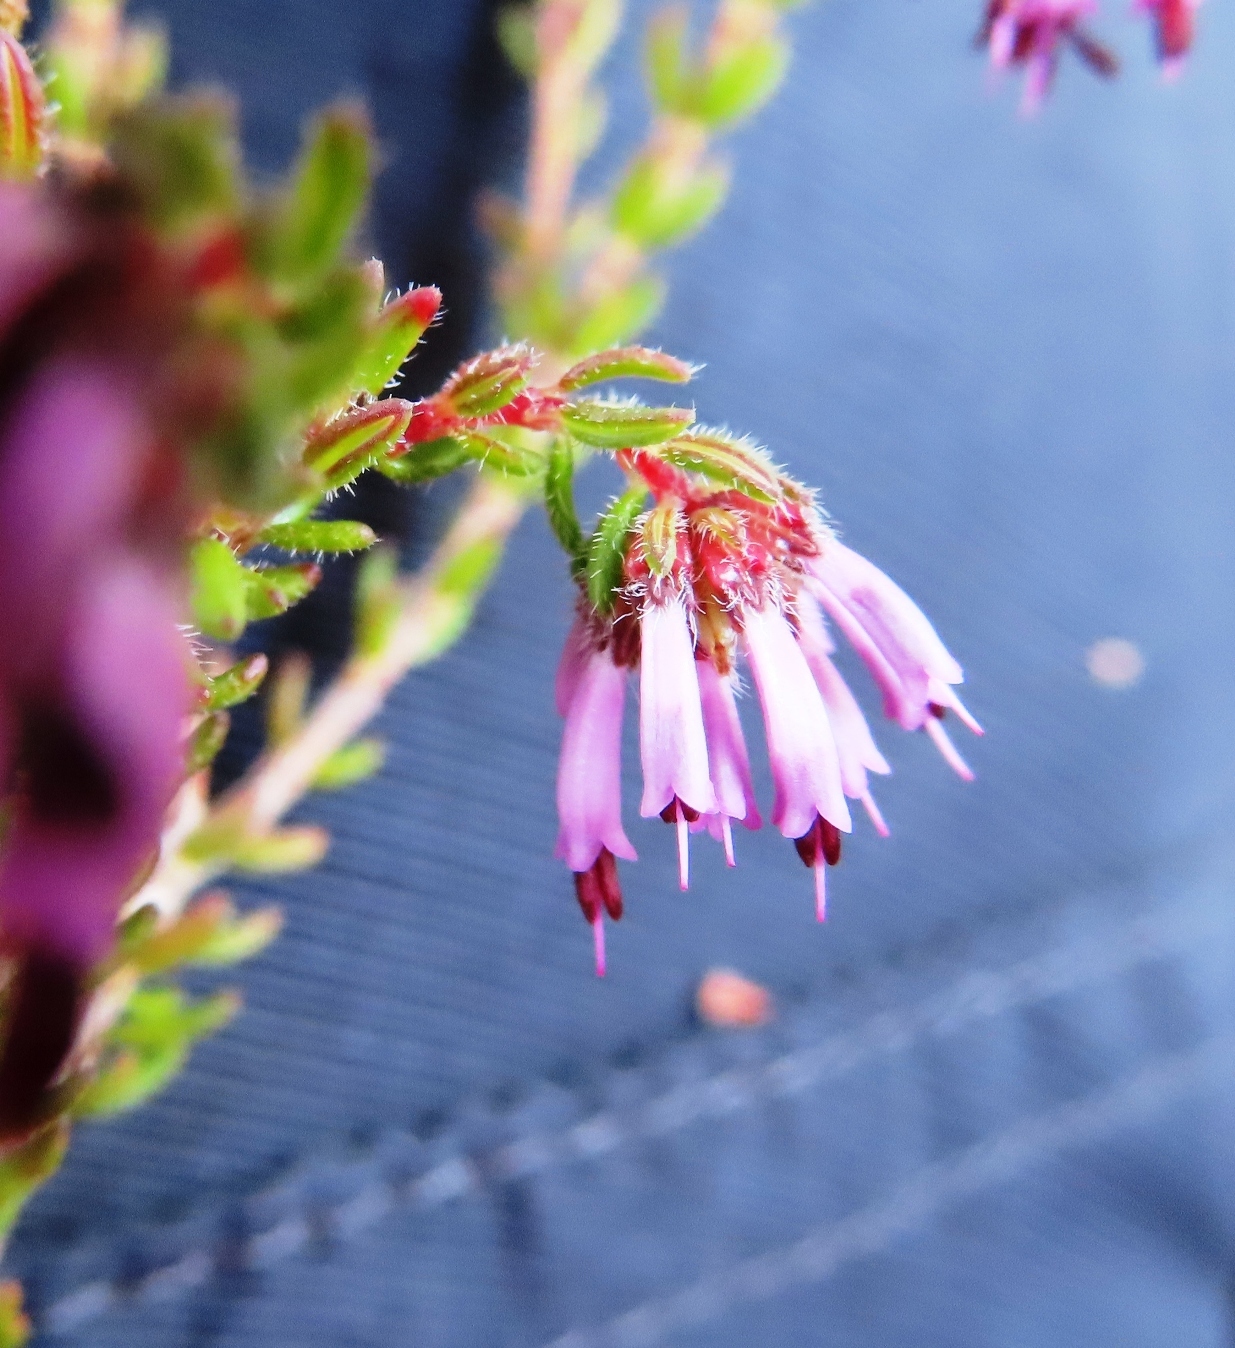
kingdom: Plantae
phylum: Tracheophyta
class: Magnoliopsida
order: Ericales
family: Ericaceae
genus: Erica
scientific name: Erica glabella
